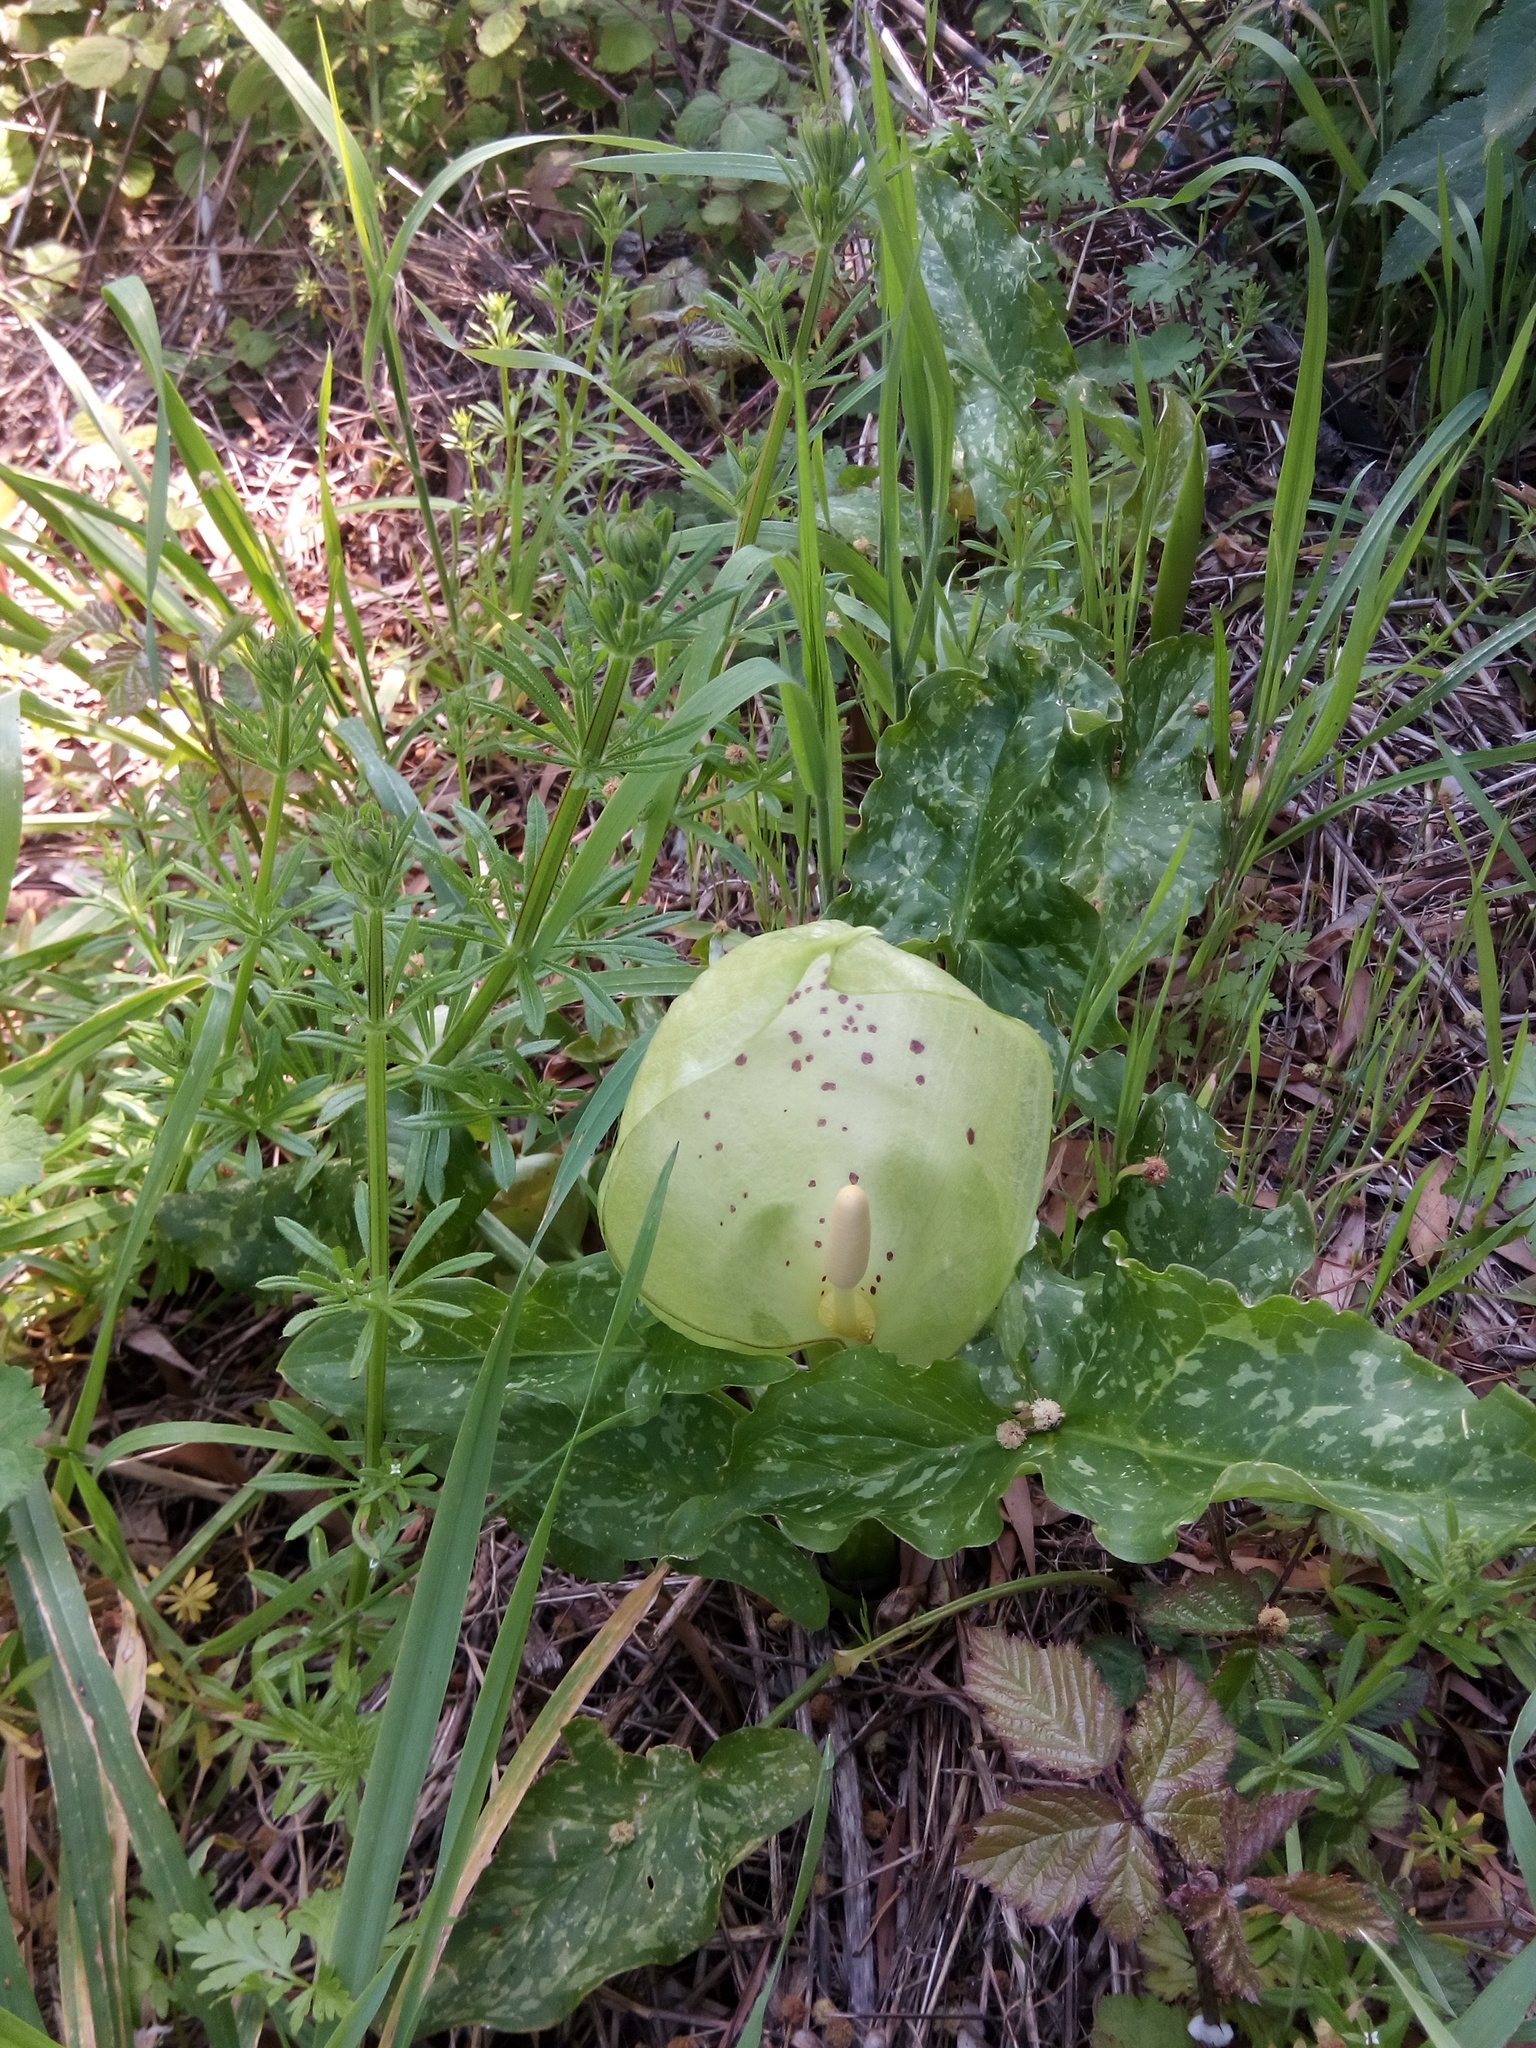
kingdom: Plantae
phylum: Tracheophyta
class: Liliopsida
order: Alismatales
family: Araceae
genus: Arum
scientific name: Arum italicum
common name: Italian lords-and-ladies
